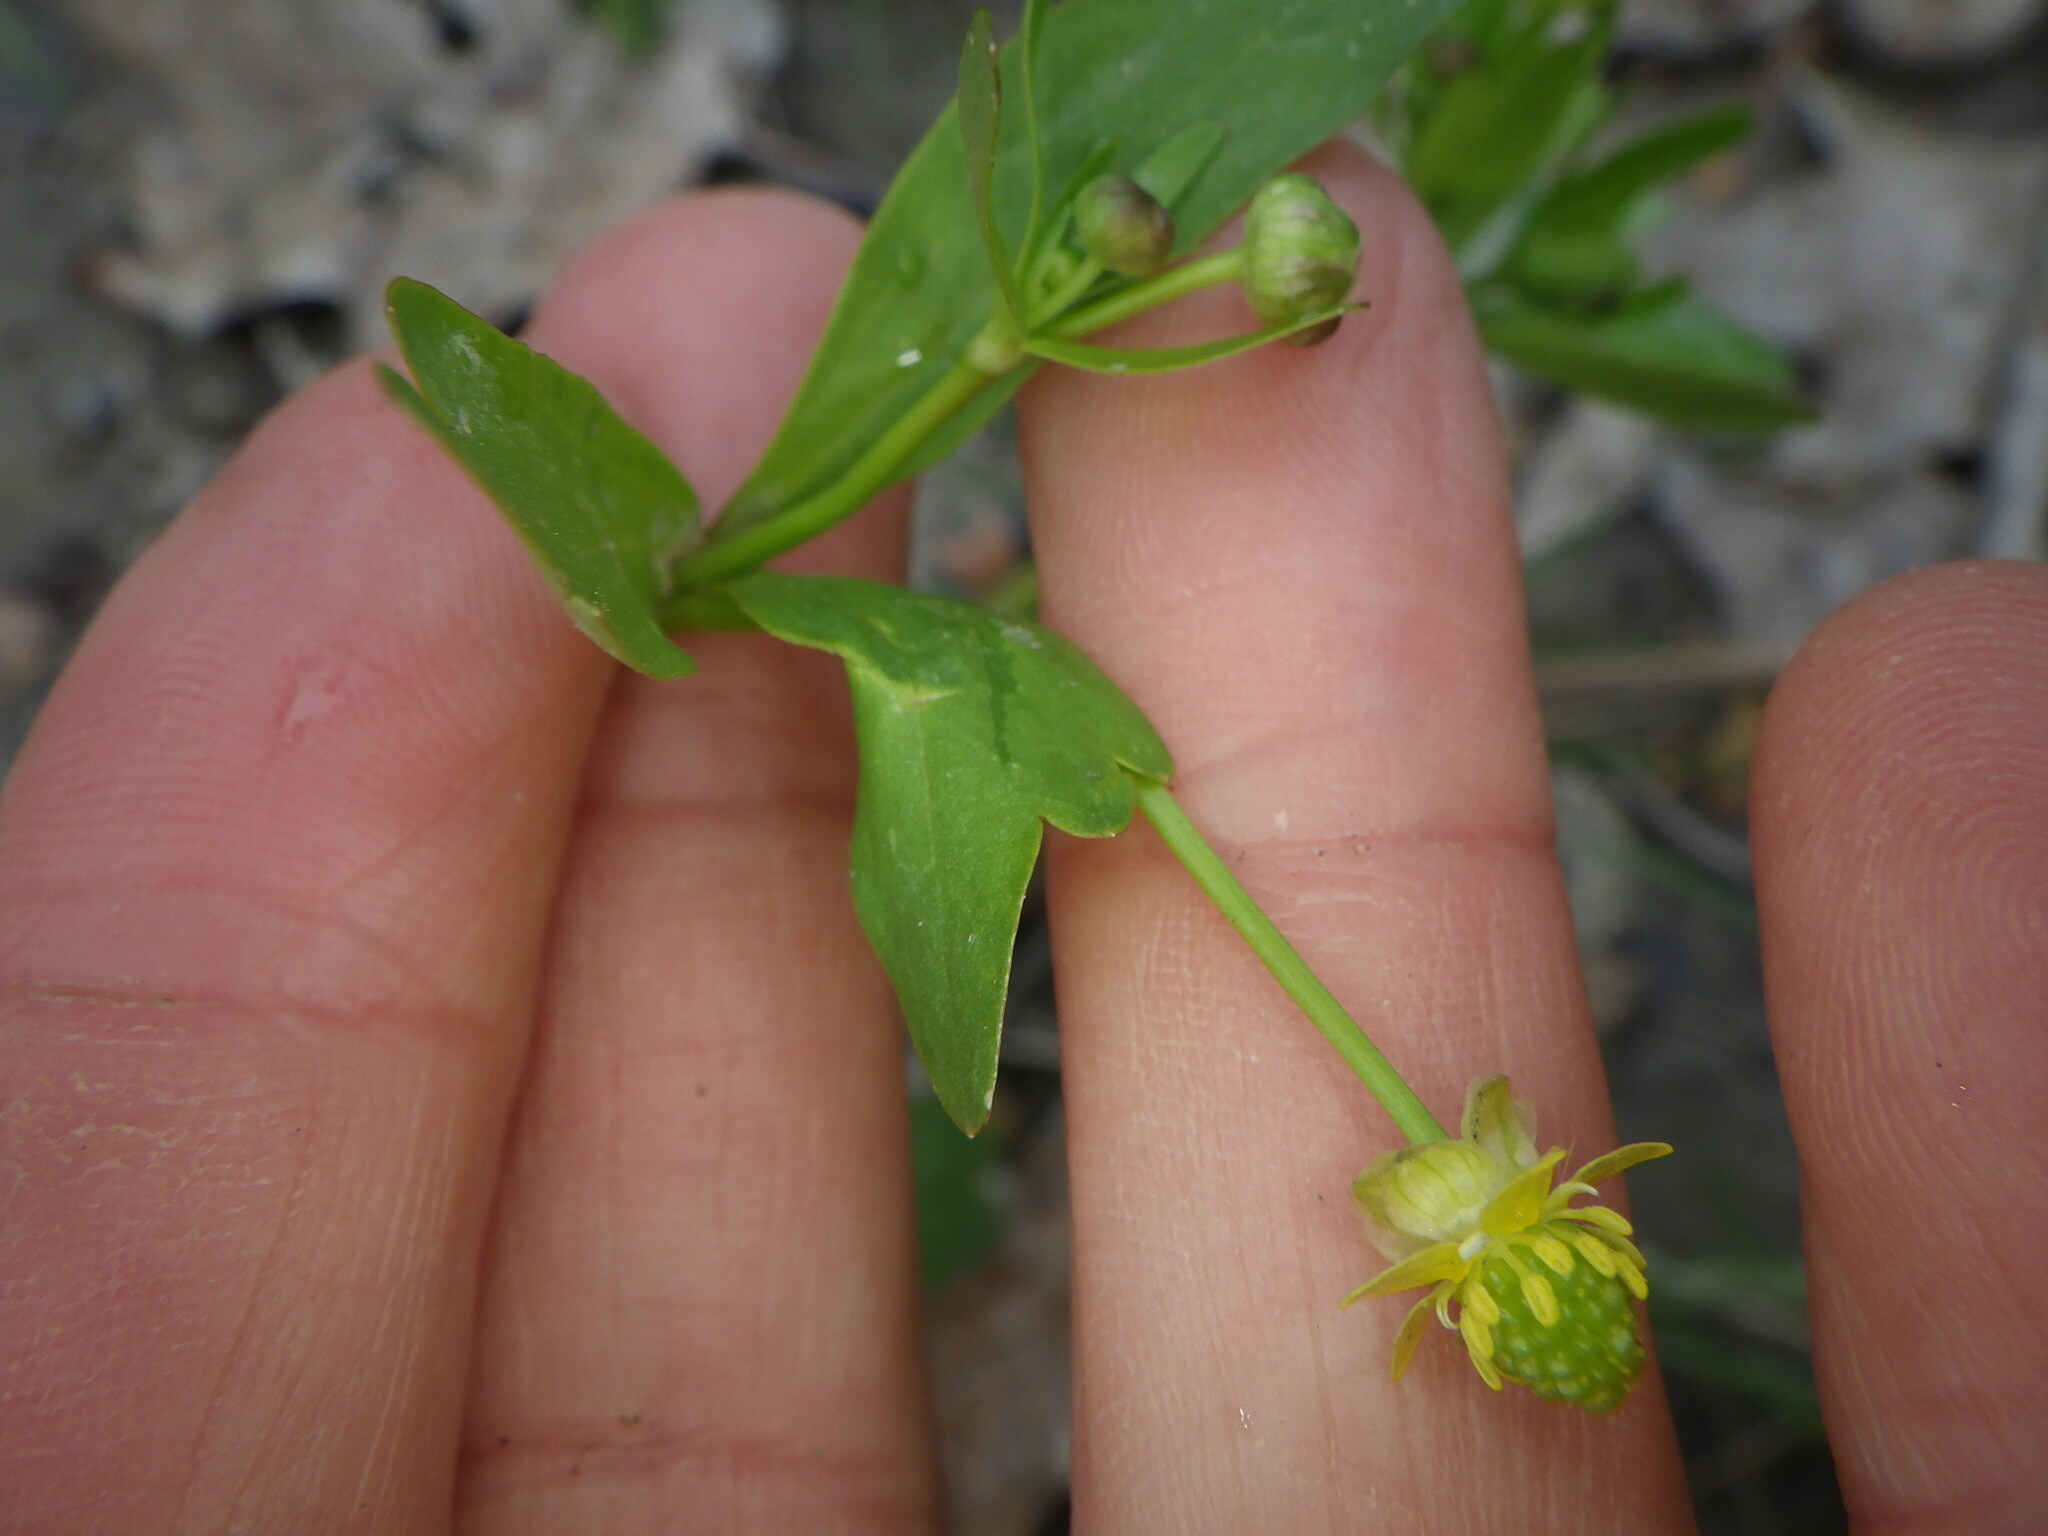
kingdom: Plantae
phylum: Tracheophyta
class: Magnoliopsida
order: Ranunculales
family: Ranunculaceae
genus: Ranunculus
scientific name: Ranunculus abortivus
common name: Early wood buttercup
